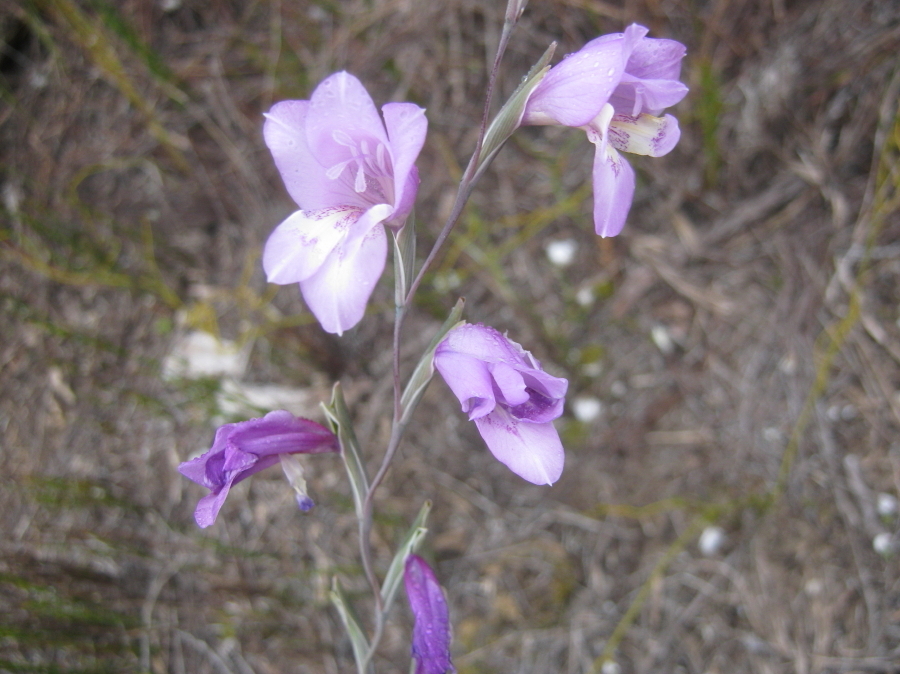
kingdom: Plantae
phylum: Tracheophyta
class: Liliopsida
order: Asparagales
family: Iridaceae
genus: Gladiolus
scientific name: Gladiolus rogersii
